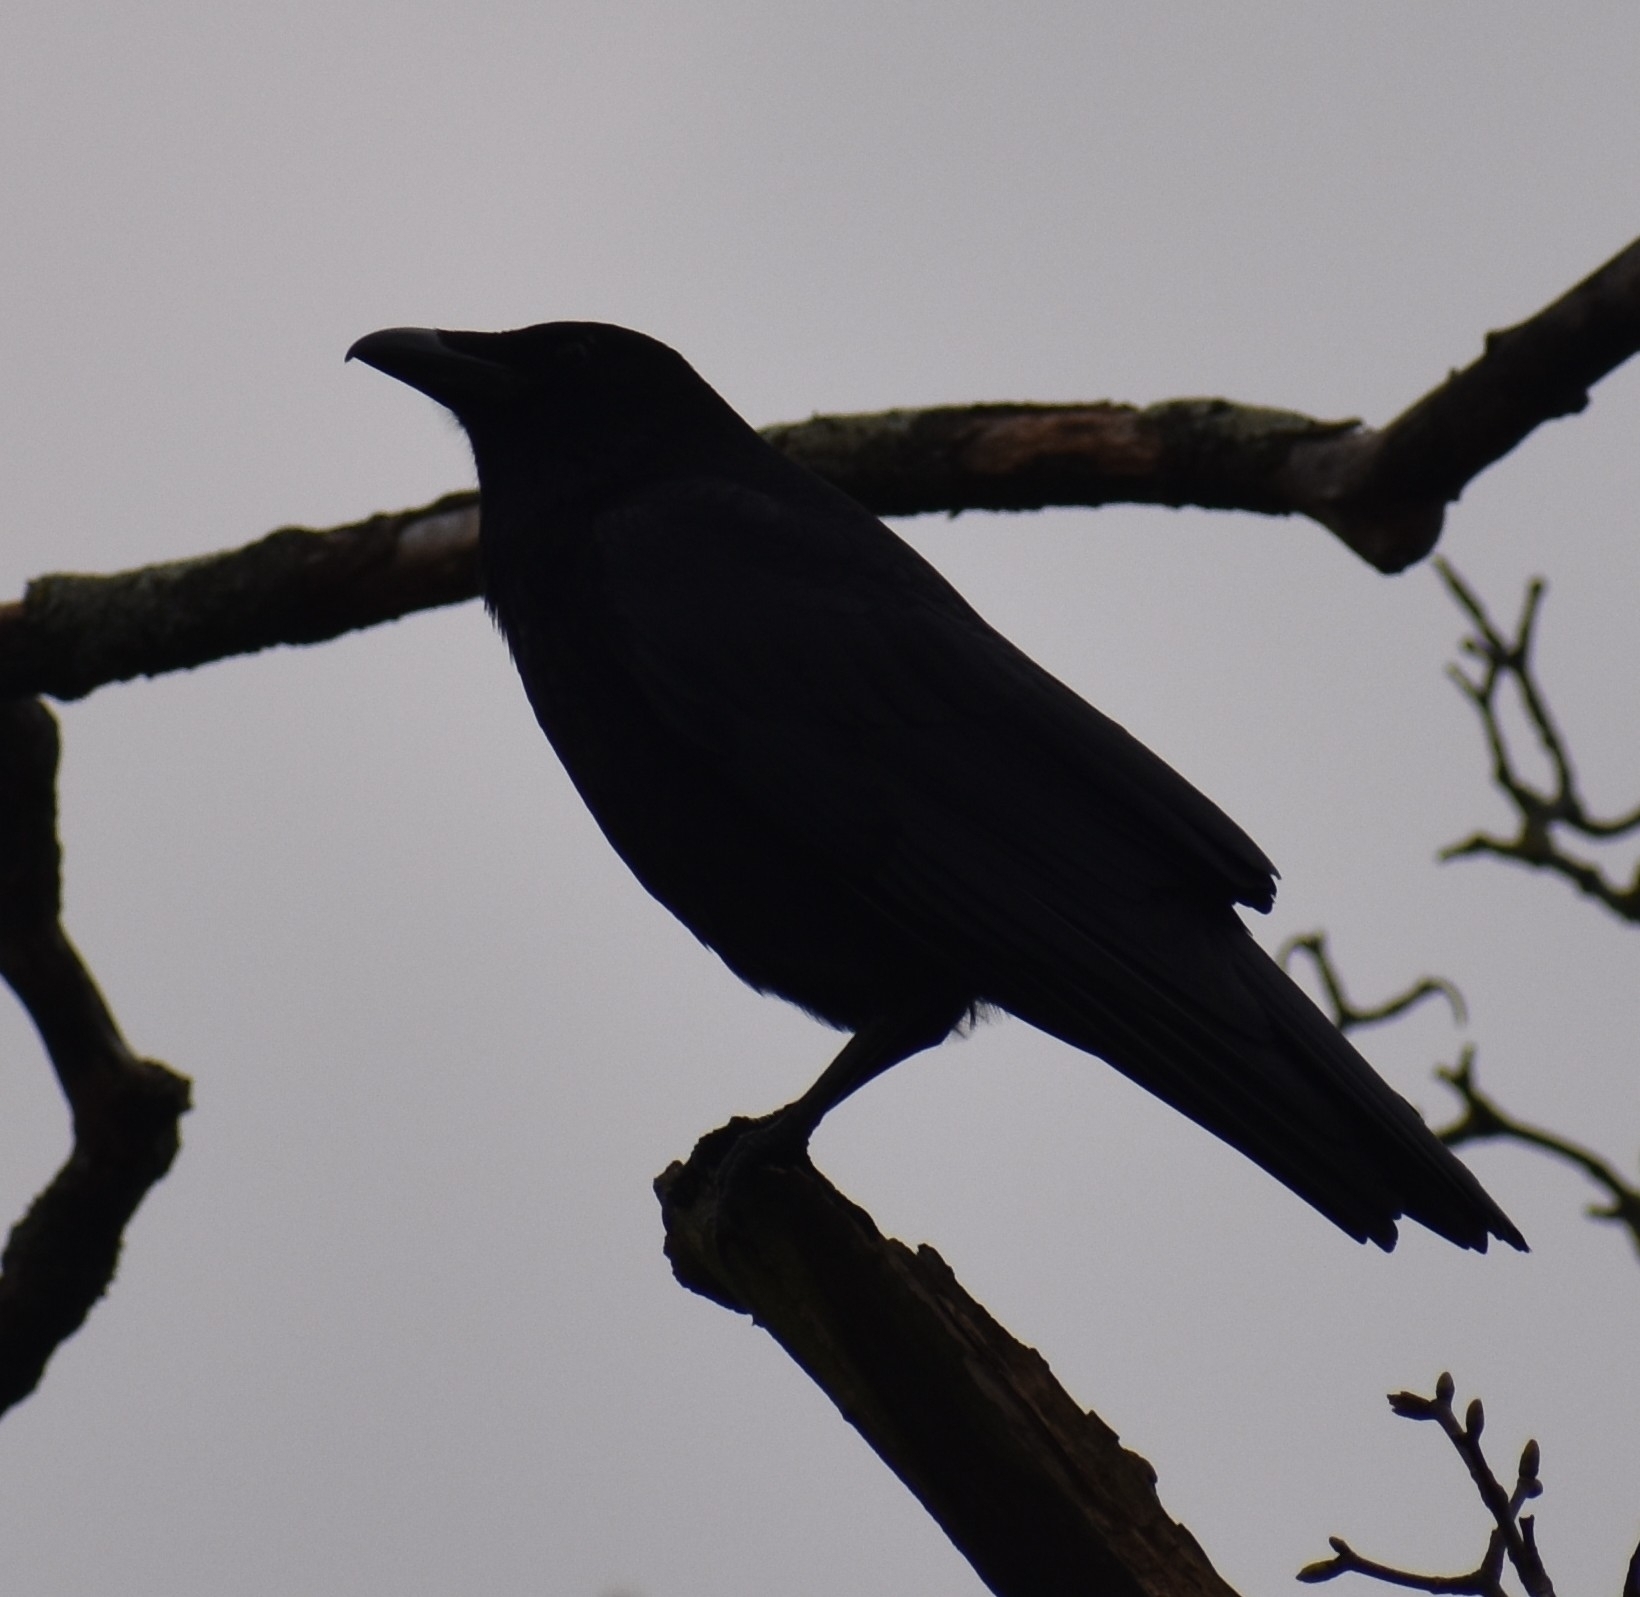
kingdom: Animalia
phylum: Chordata
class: Aves
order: Passeriformes
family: Corvidae
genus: Corvus
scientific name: Corvus corone
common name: Carrion crow
